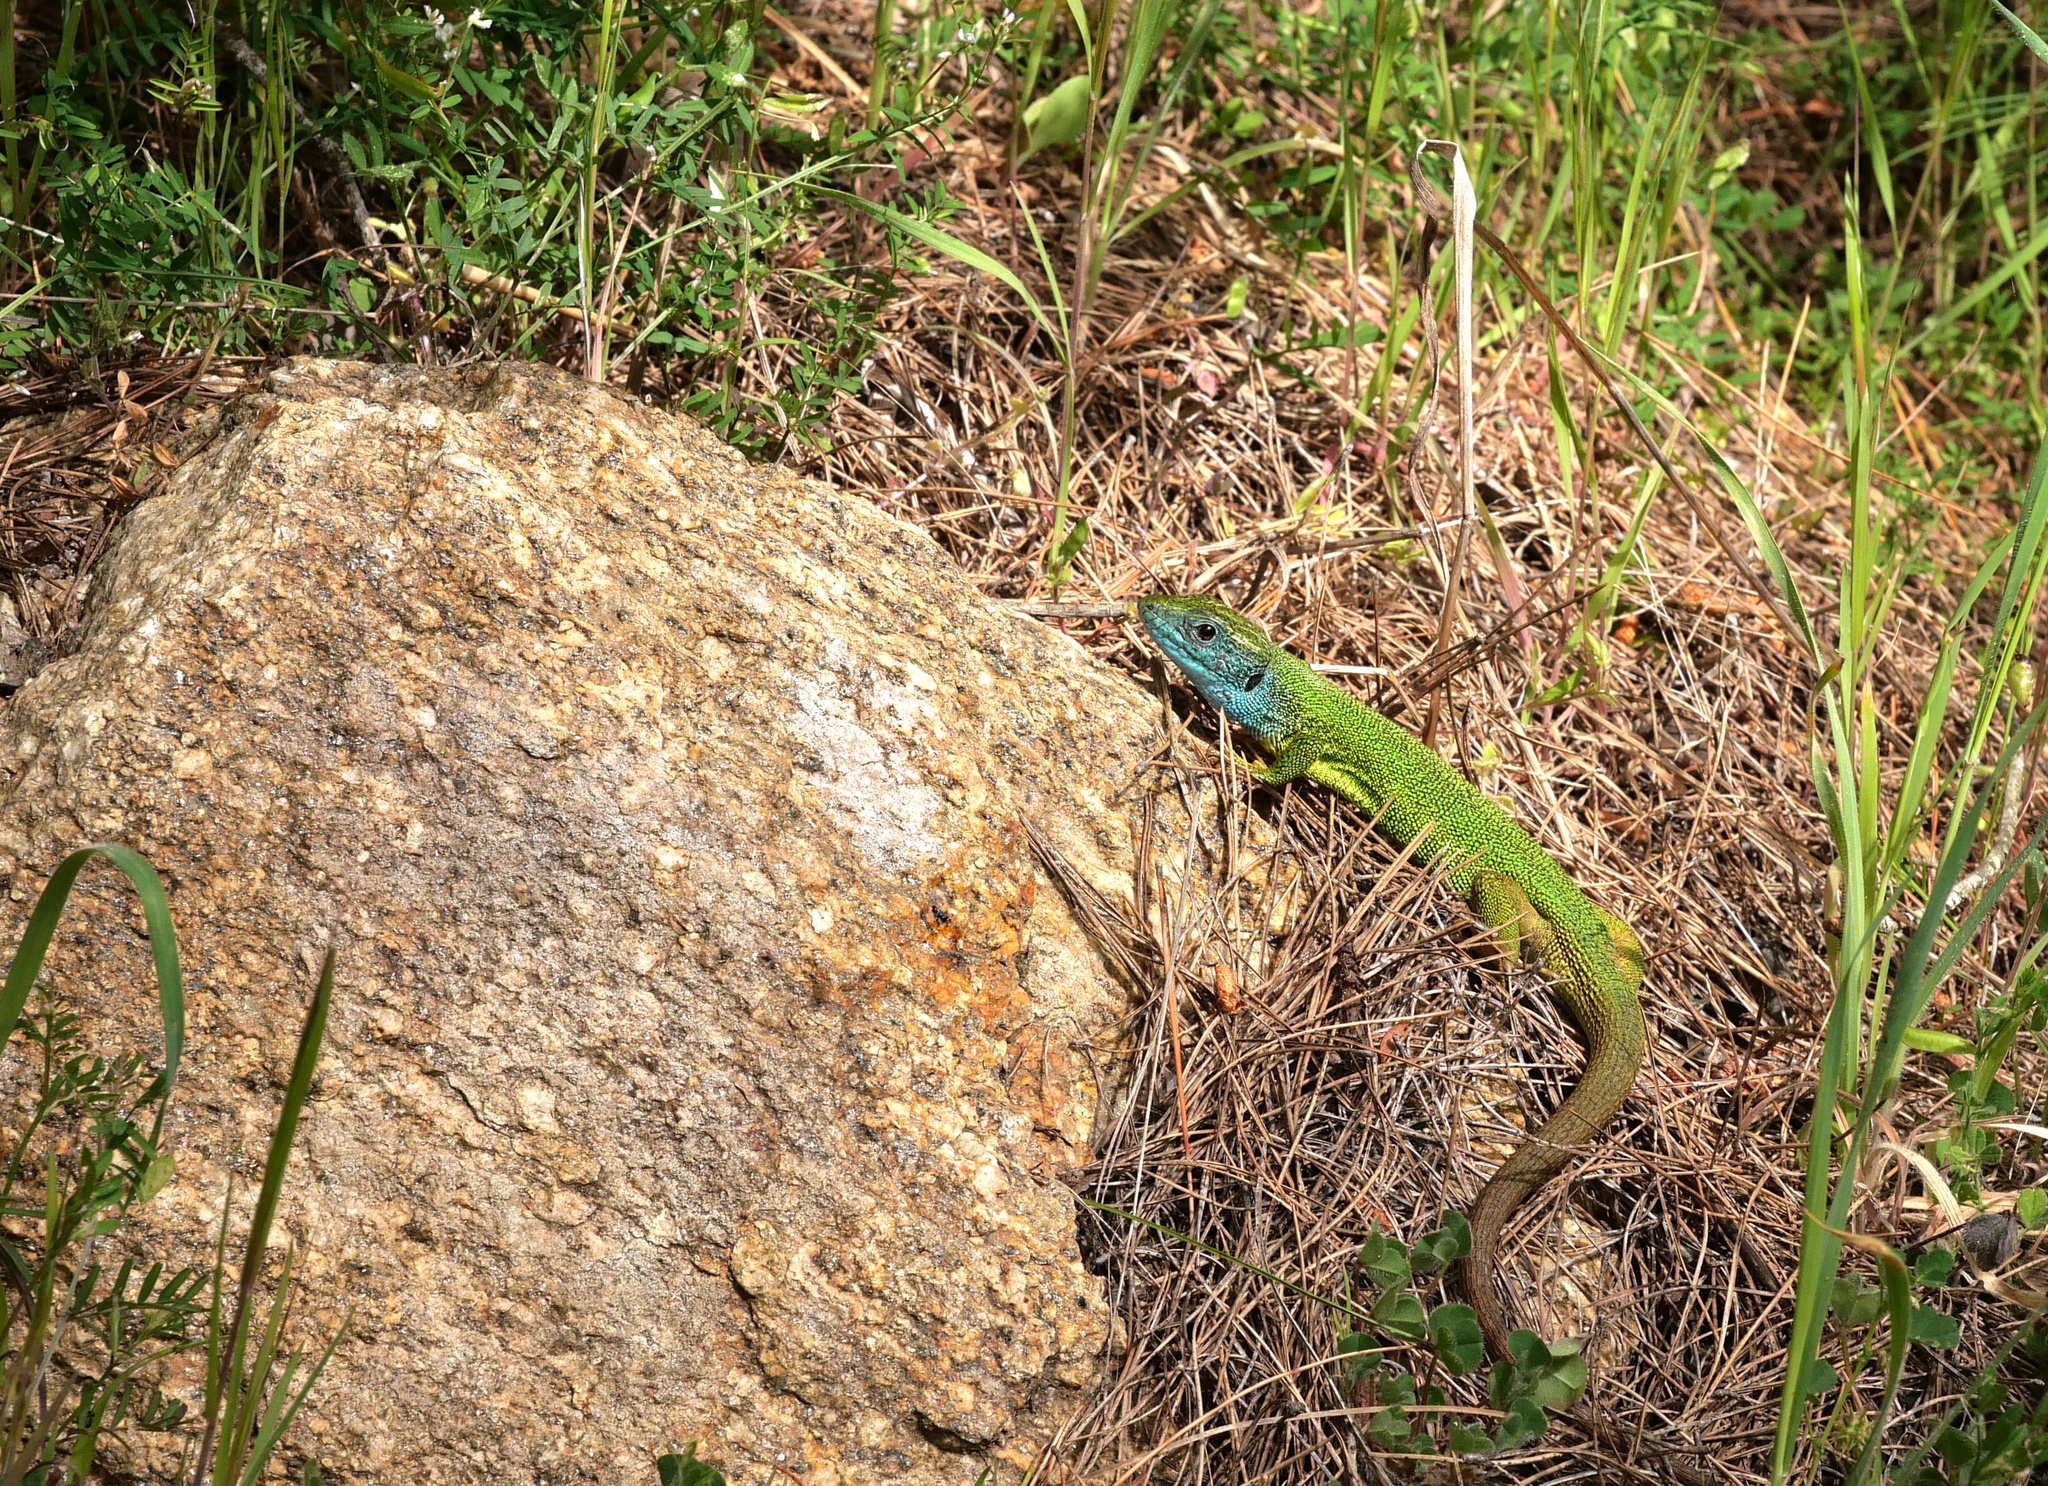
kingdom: Animalia
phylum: Chordata
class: Squamata
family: Lacertidae
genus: Lacerta
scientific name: Lacerta viridis
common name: European green lizard
